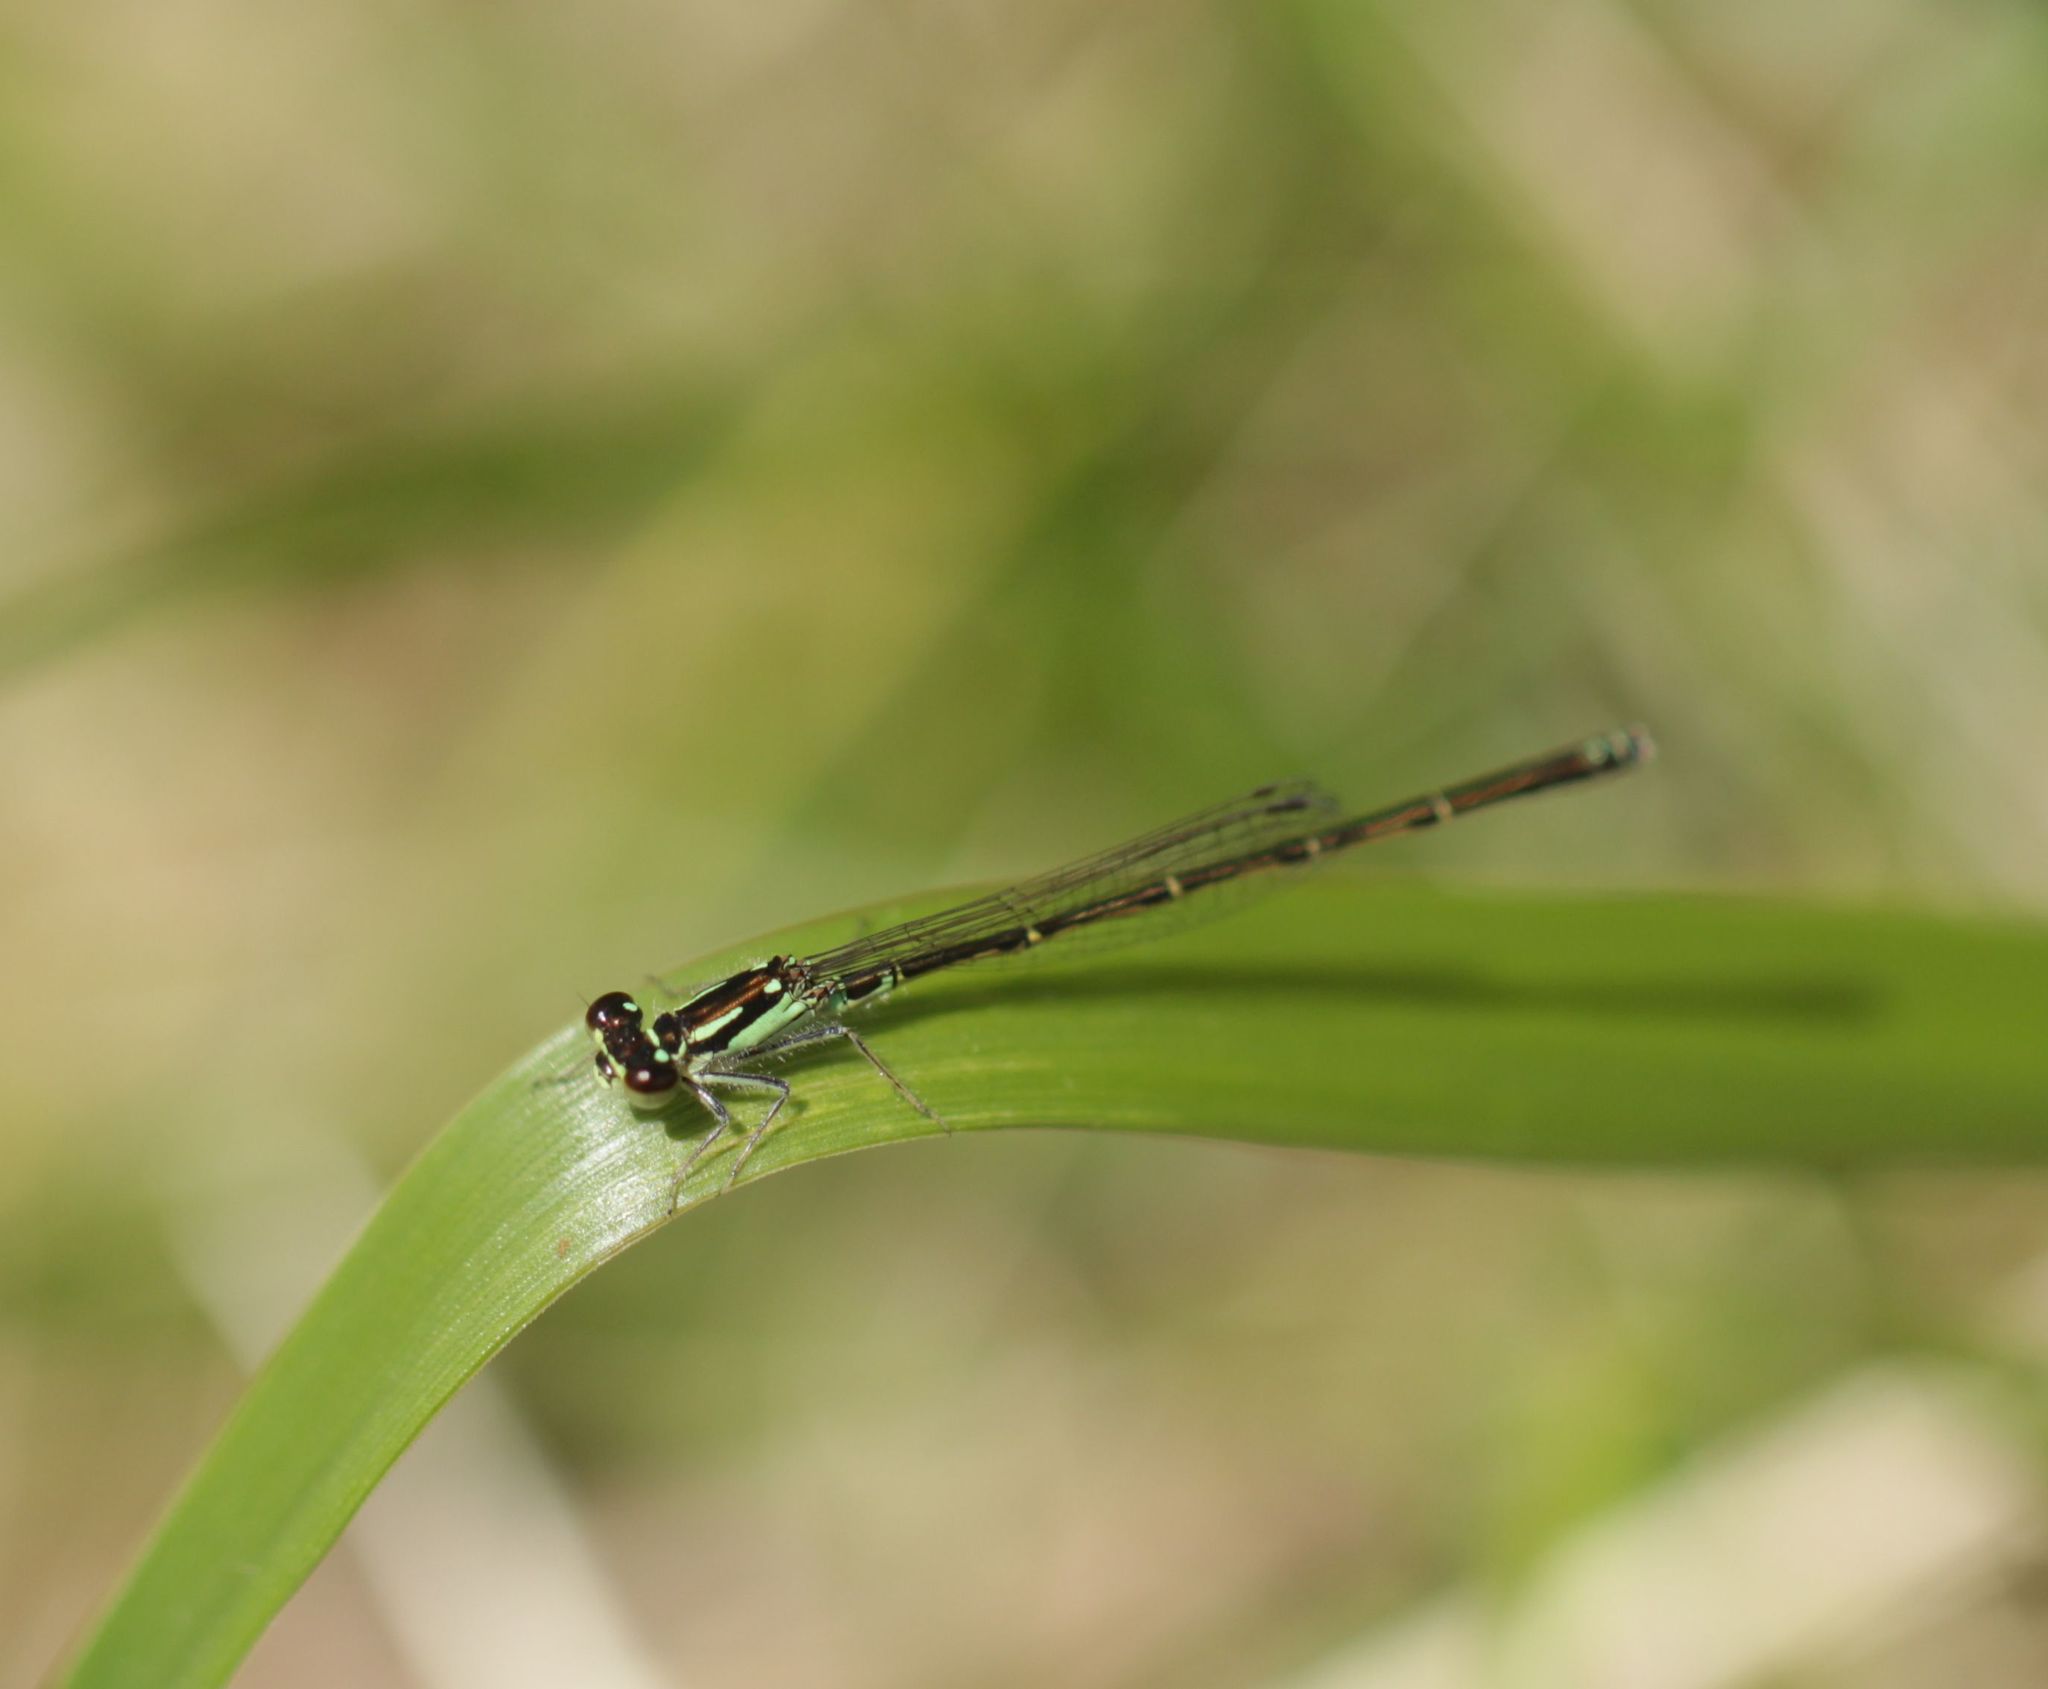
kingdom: Animalia
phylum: Arthropoda
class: Insecta
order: Odonata
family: Coenagrionidae
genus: Ischnura
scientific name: Ischnura posita
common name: Fragile forktail
